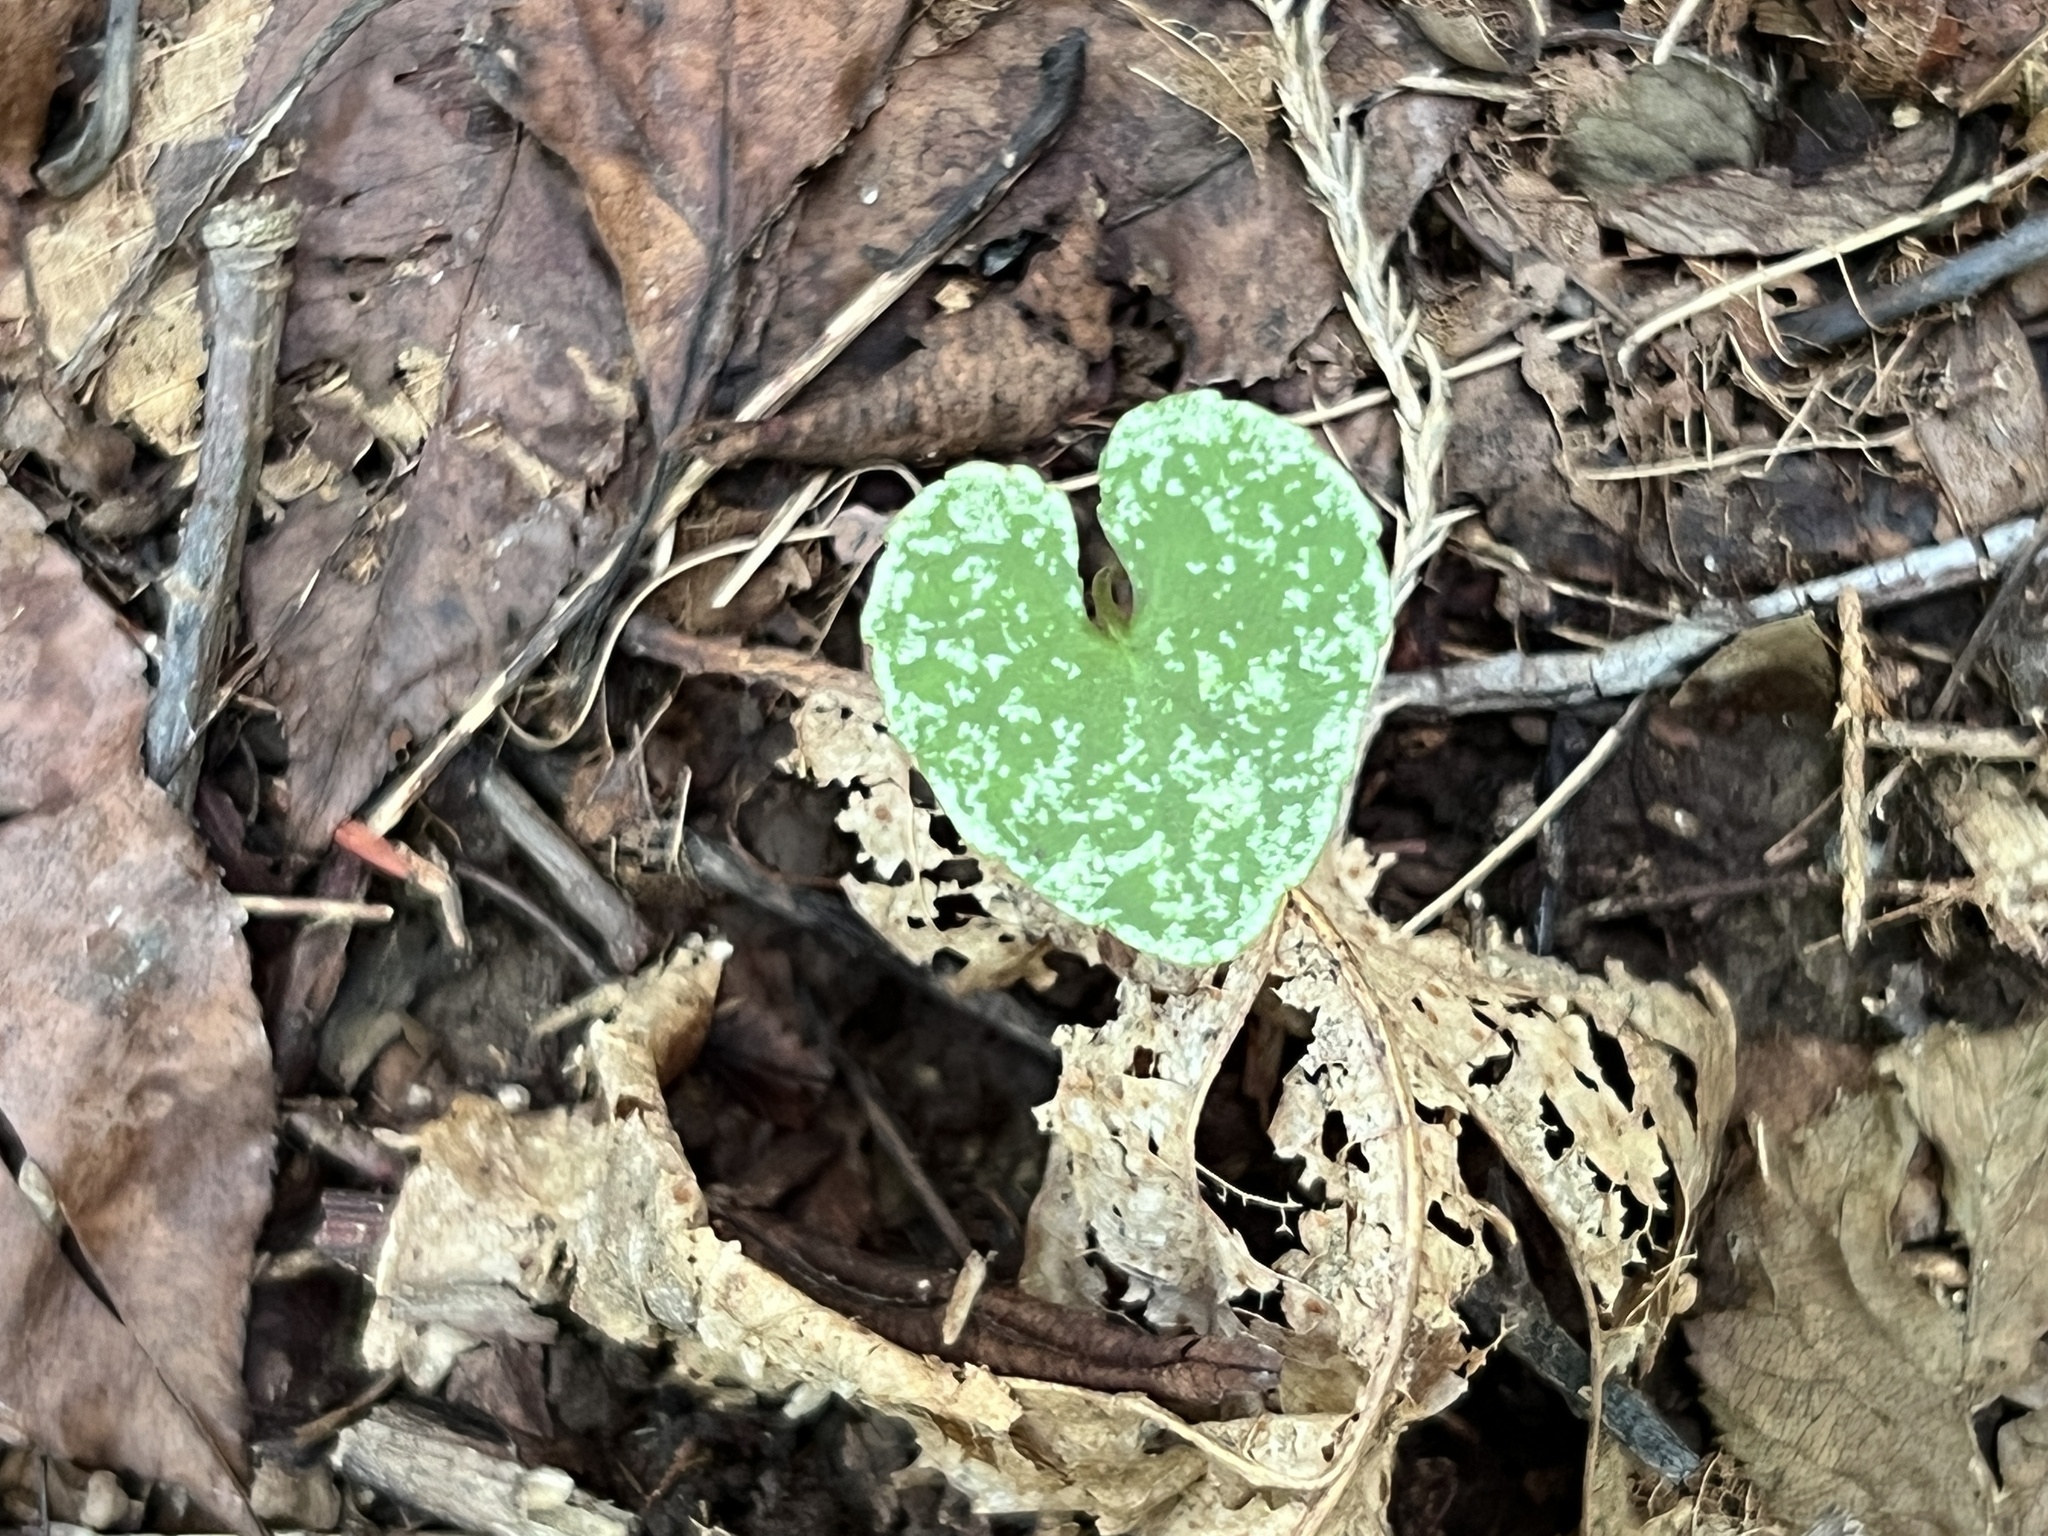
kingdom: Fungi
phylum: Basidiomycota
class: Agaricomycetes
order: Sebacinales
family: Sebacinaceae
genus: Sebacina
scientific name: Sebacina incrustans
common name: Enveloping crust
